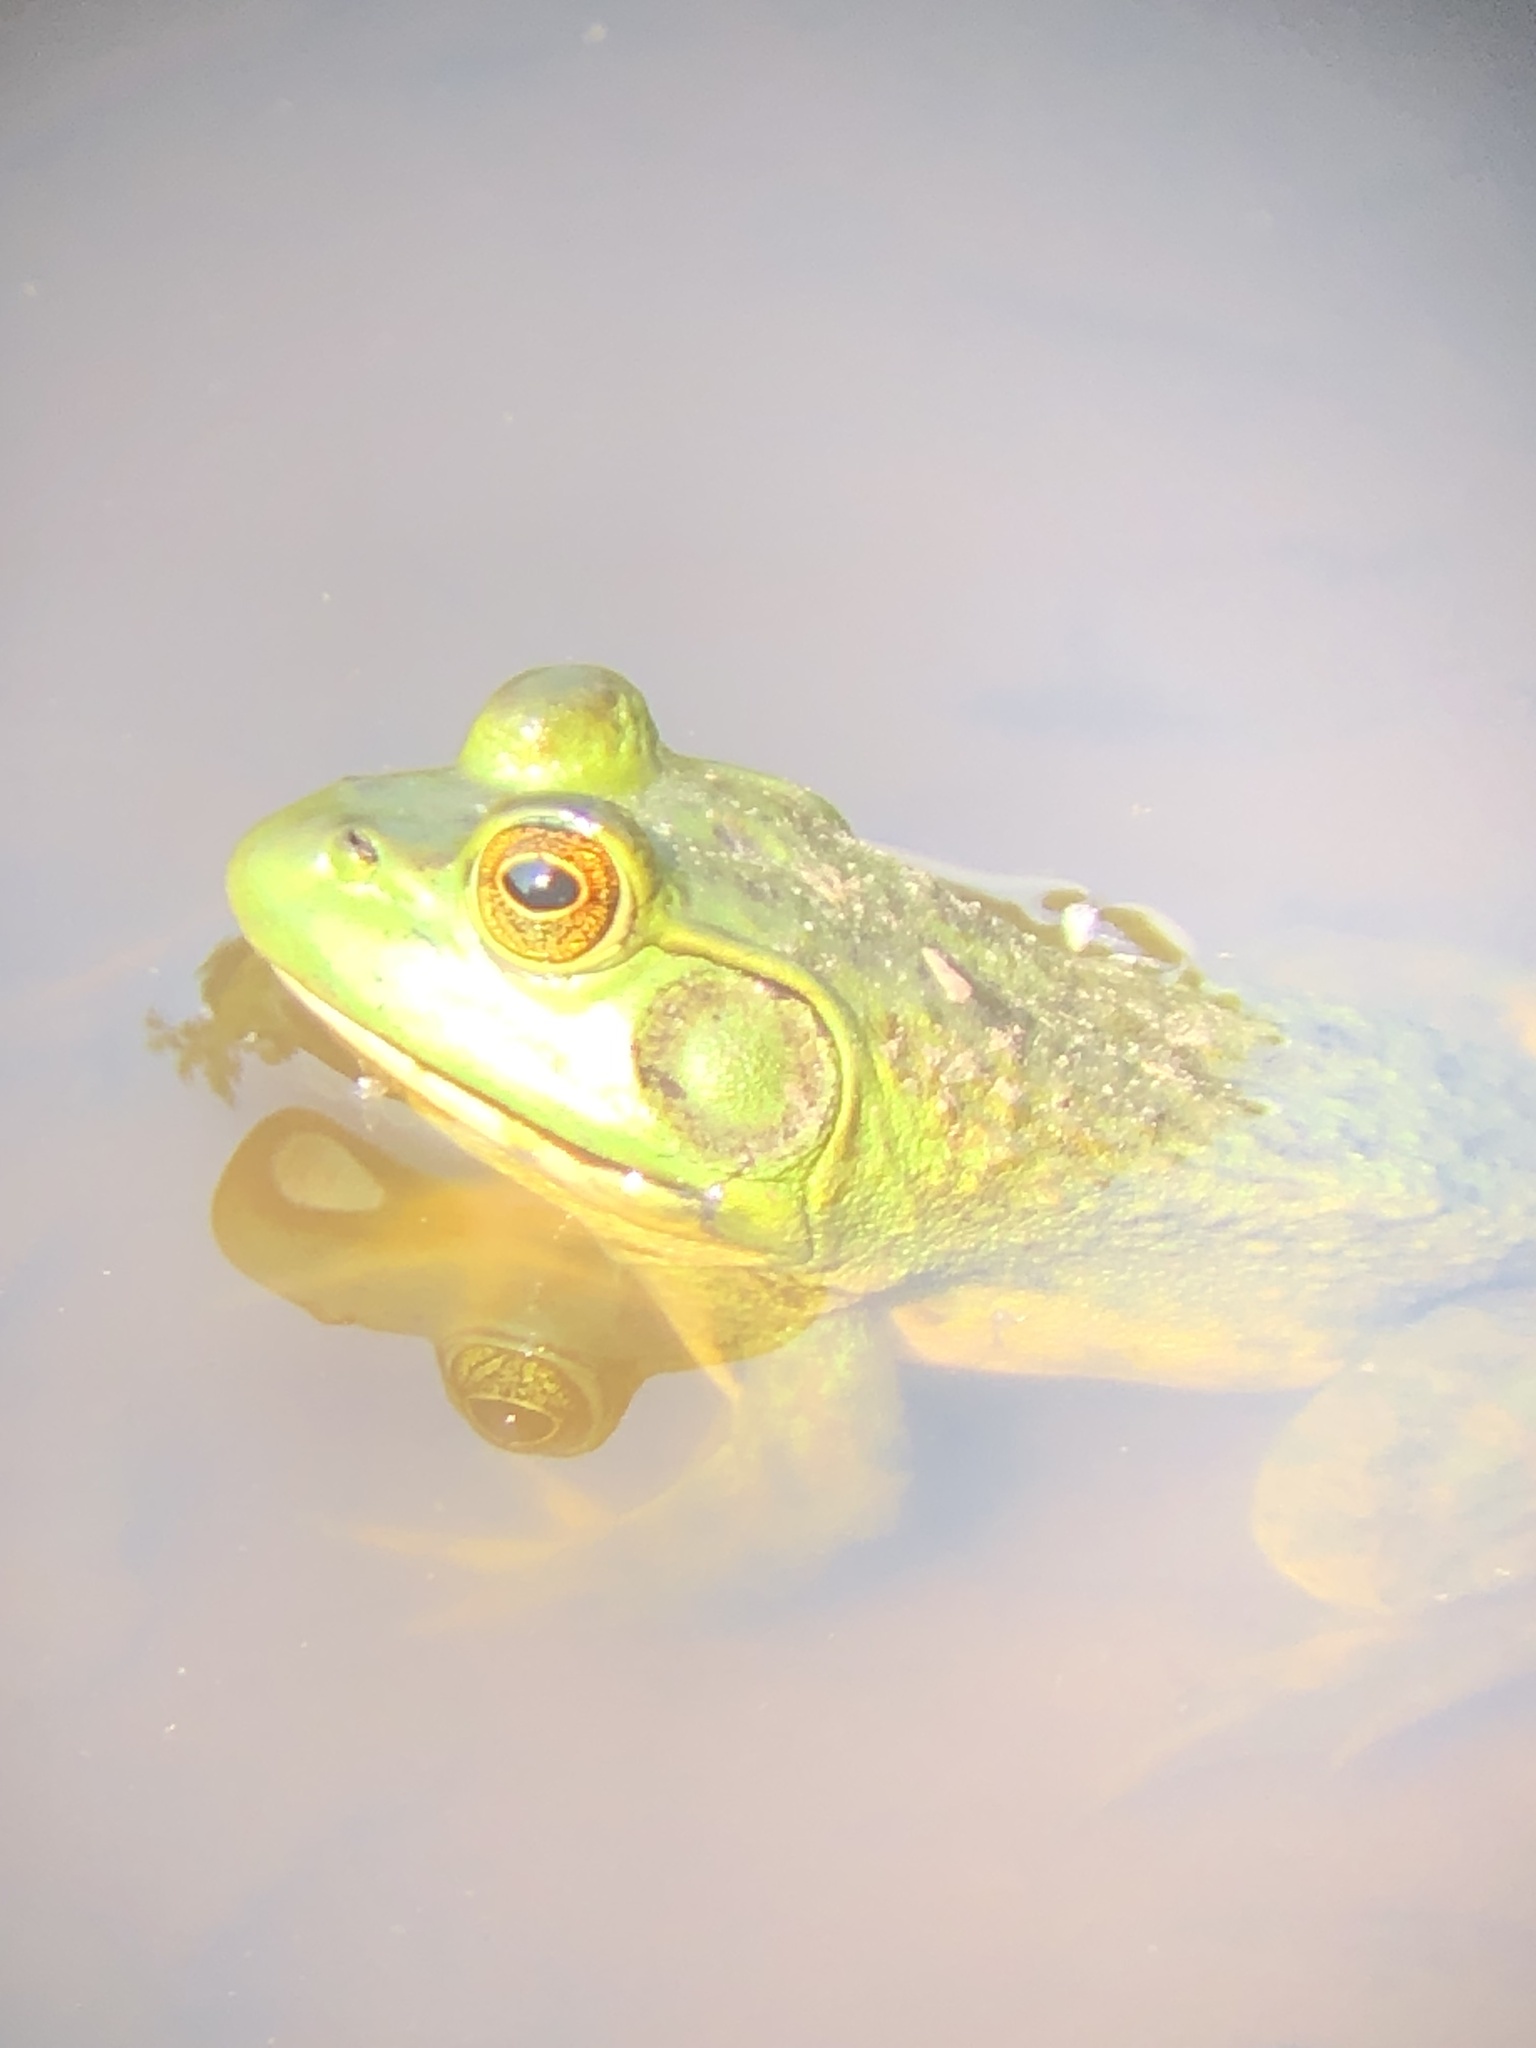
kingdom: Animalia
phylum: Chordata
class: Amphibia
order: Anura
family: Ranidae
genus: Lithobates
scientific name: Lithobates catesbeianus
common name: American bullfrog
